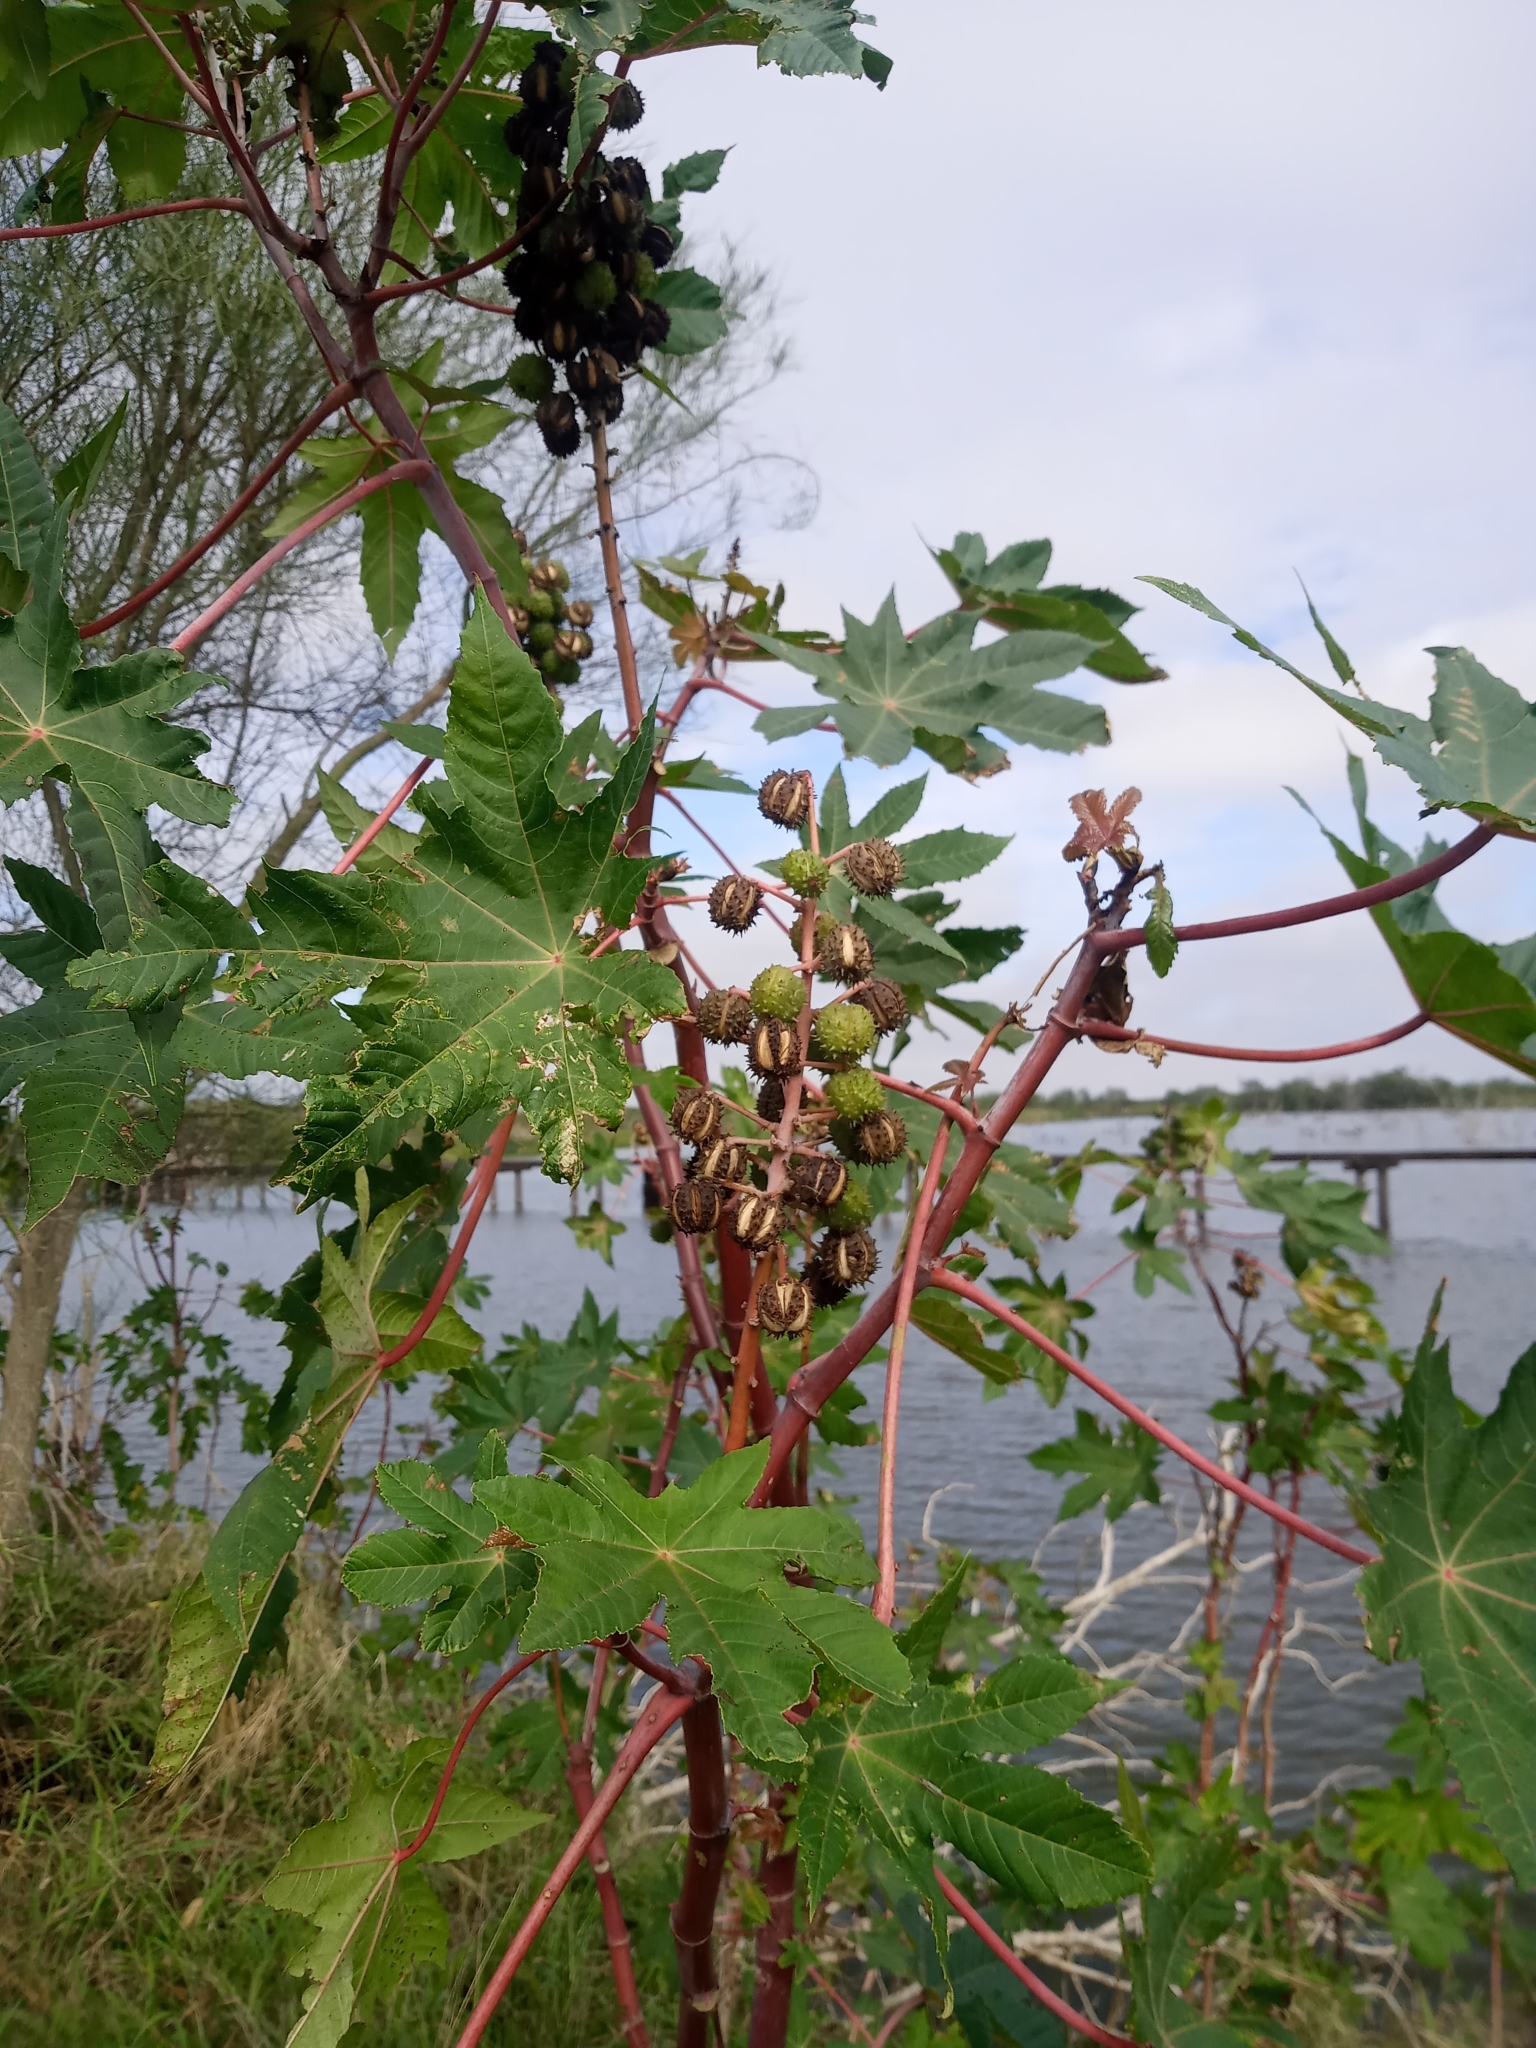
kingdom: Plantae
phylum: Tracheophyta
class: Magnoliopsida
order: Malpighiales
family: Euphorbiaceae
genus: Ricinus
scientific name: Ricinus communis
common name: Castor-oil-plant
